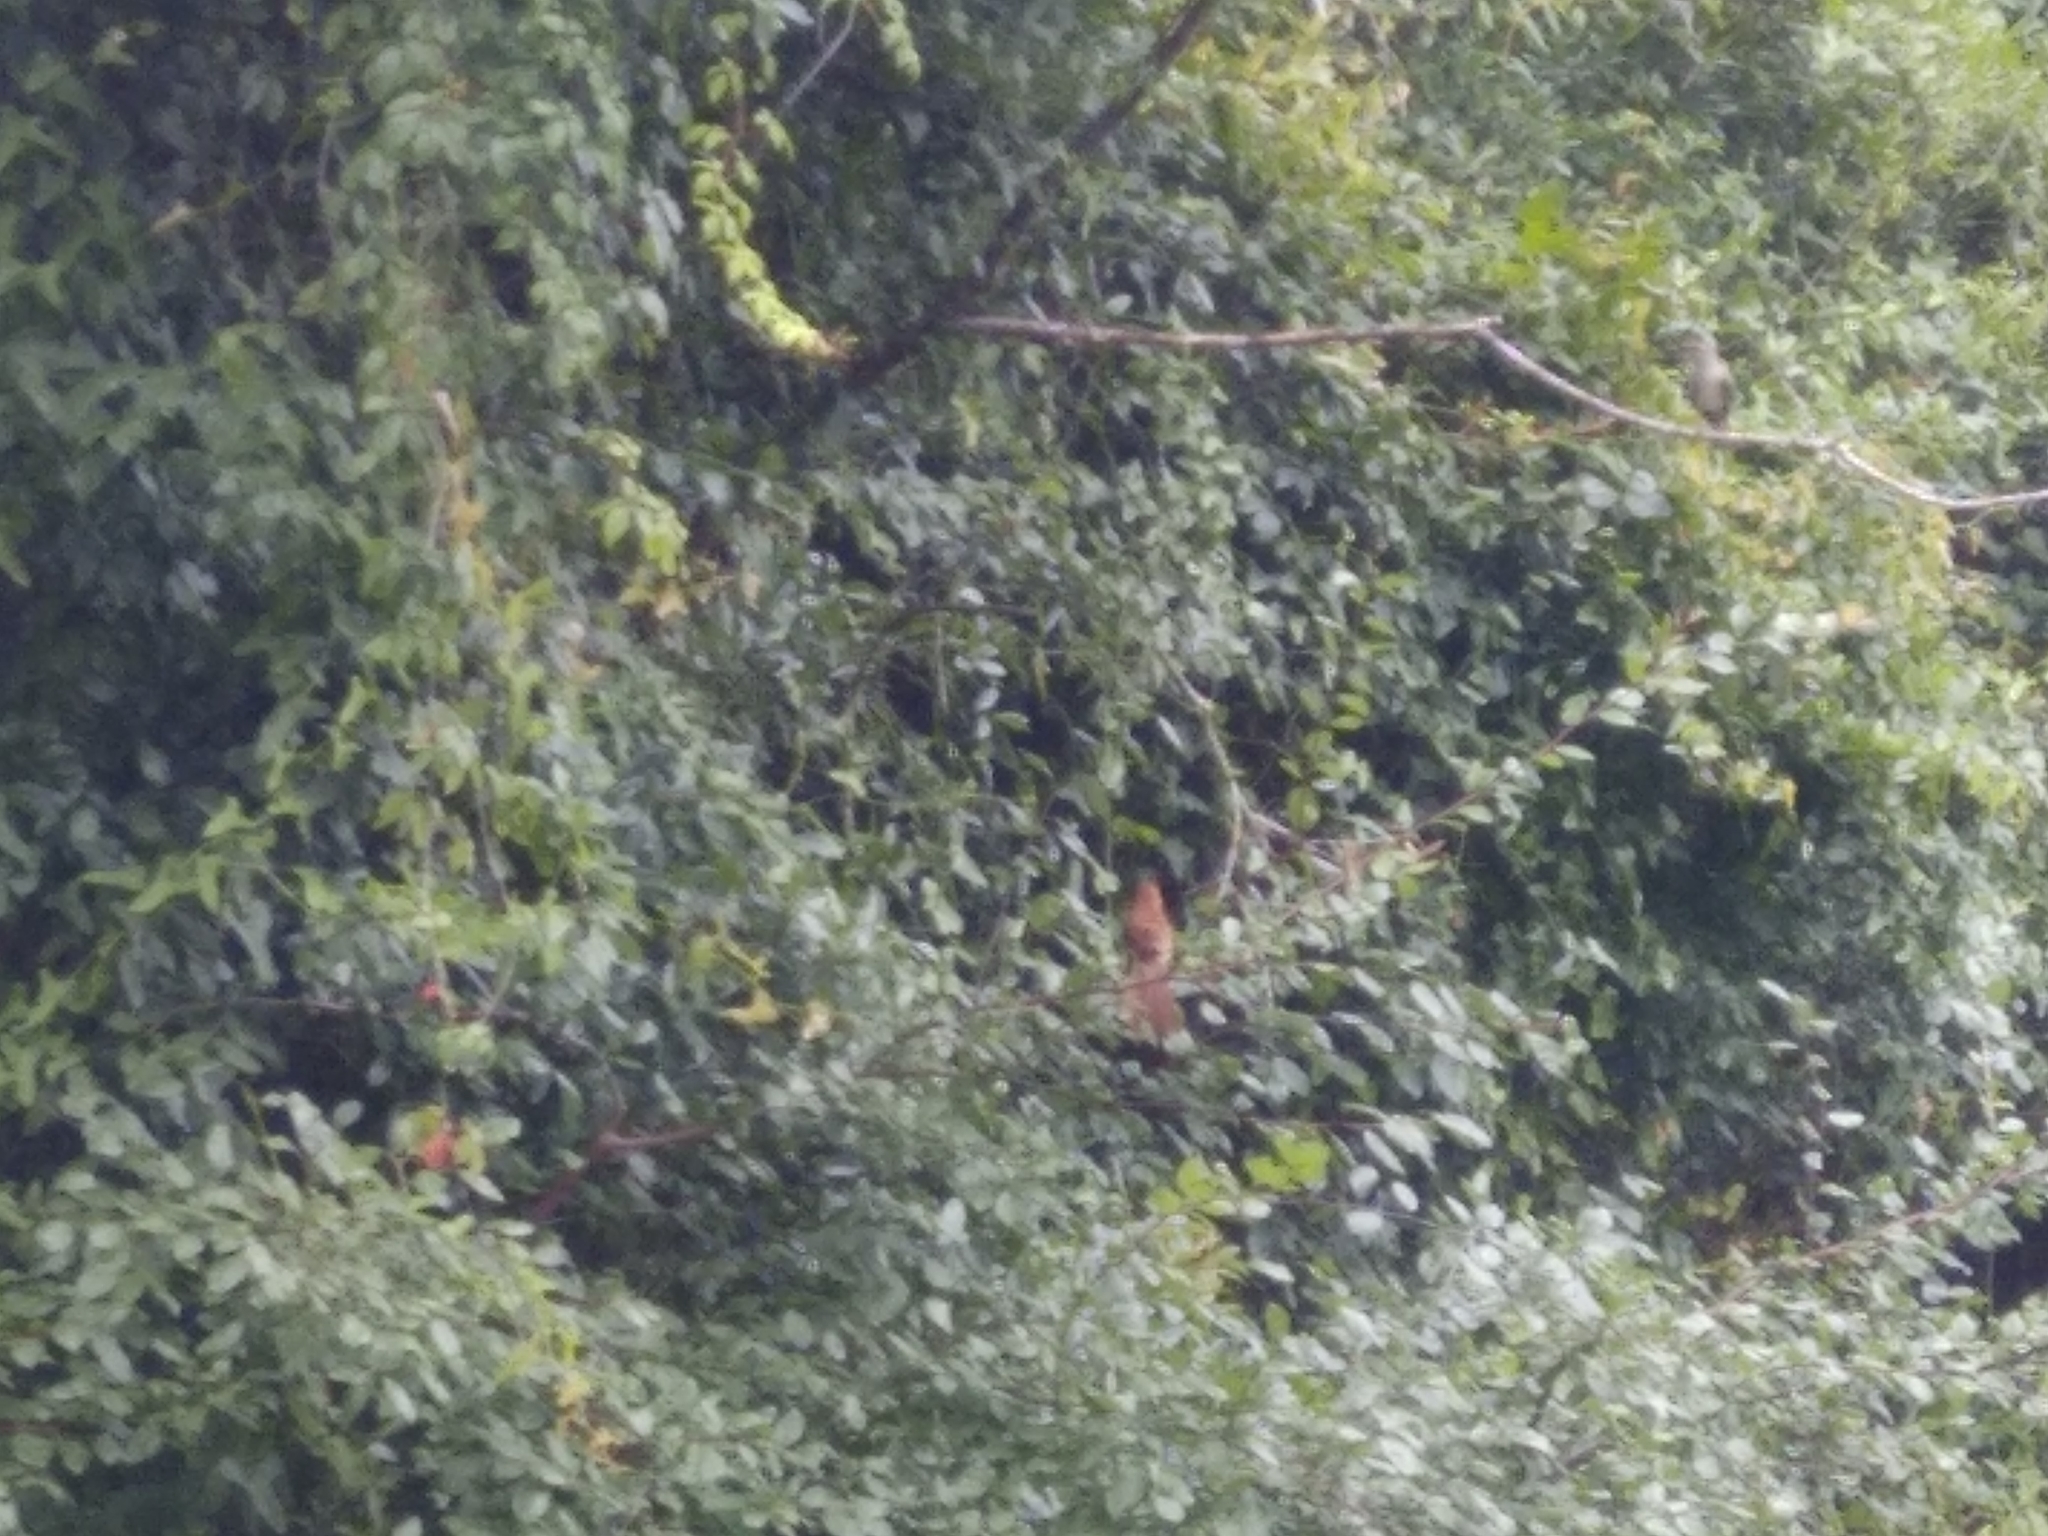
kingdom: Animalia
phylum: Chordata
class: Aves
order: Passeriformes
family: Mimidae
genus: Toxostoma
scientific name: Toxostoma rufum
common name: Brown thrasher
